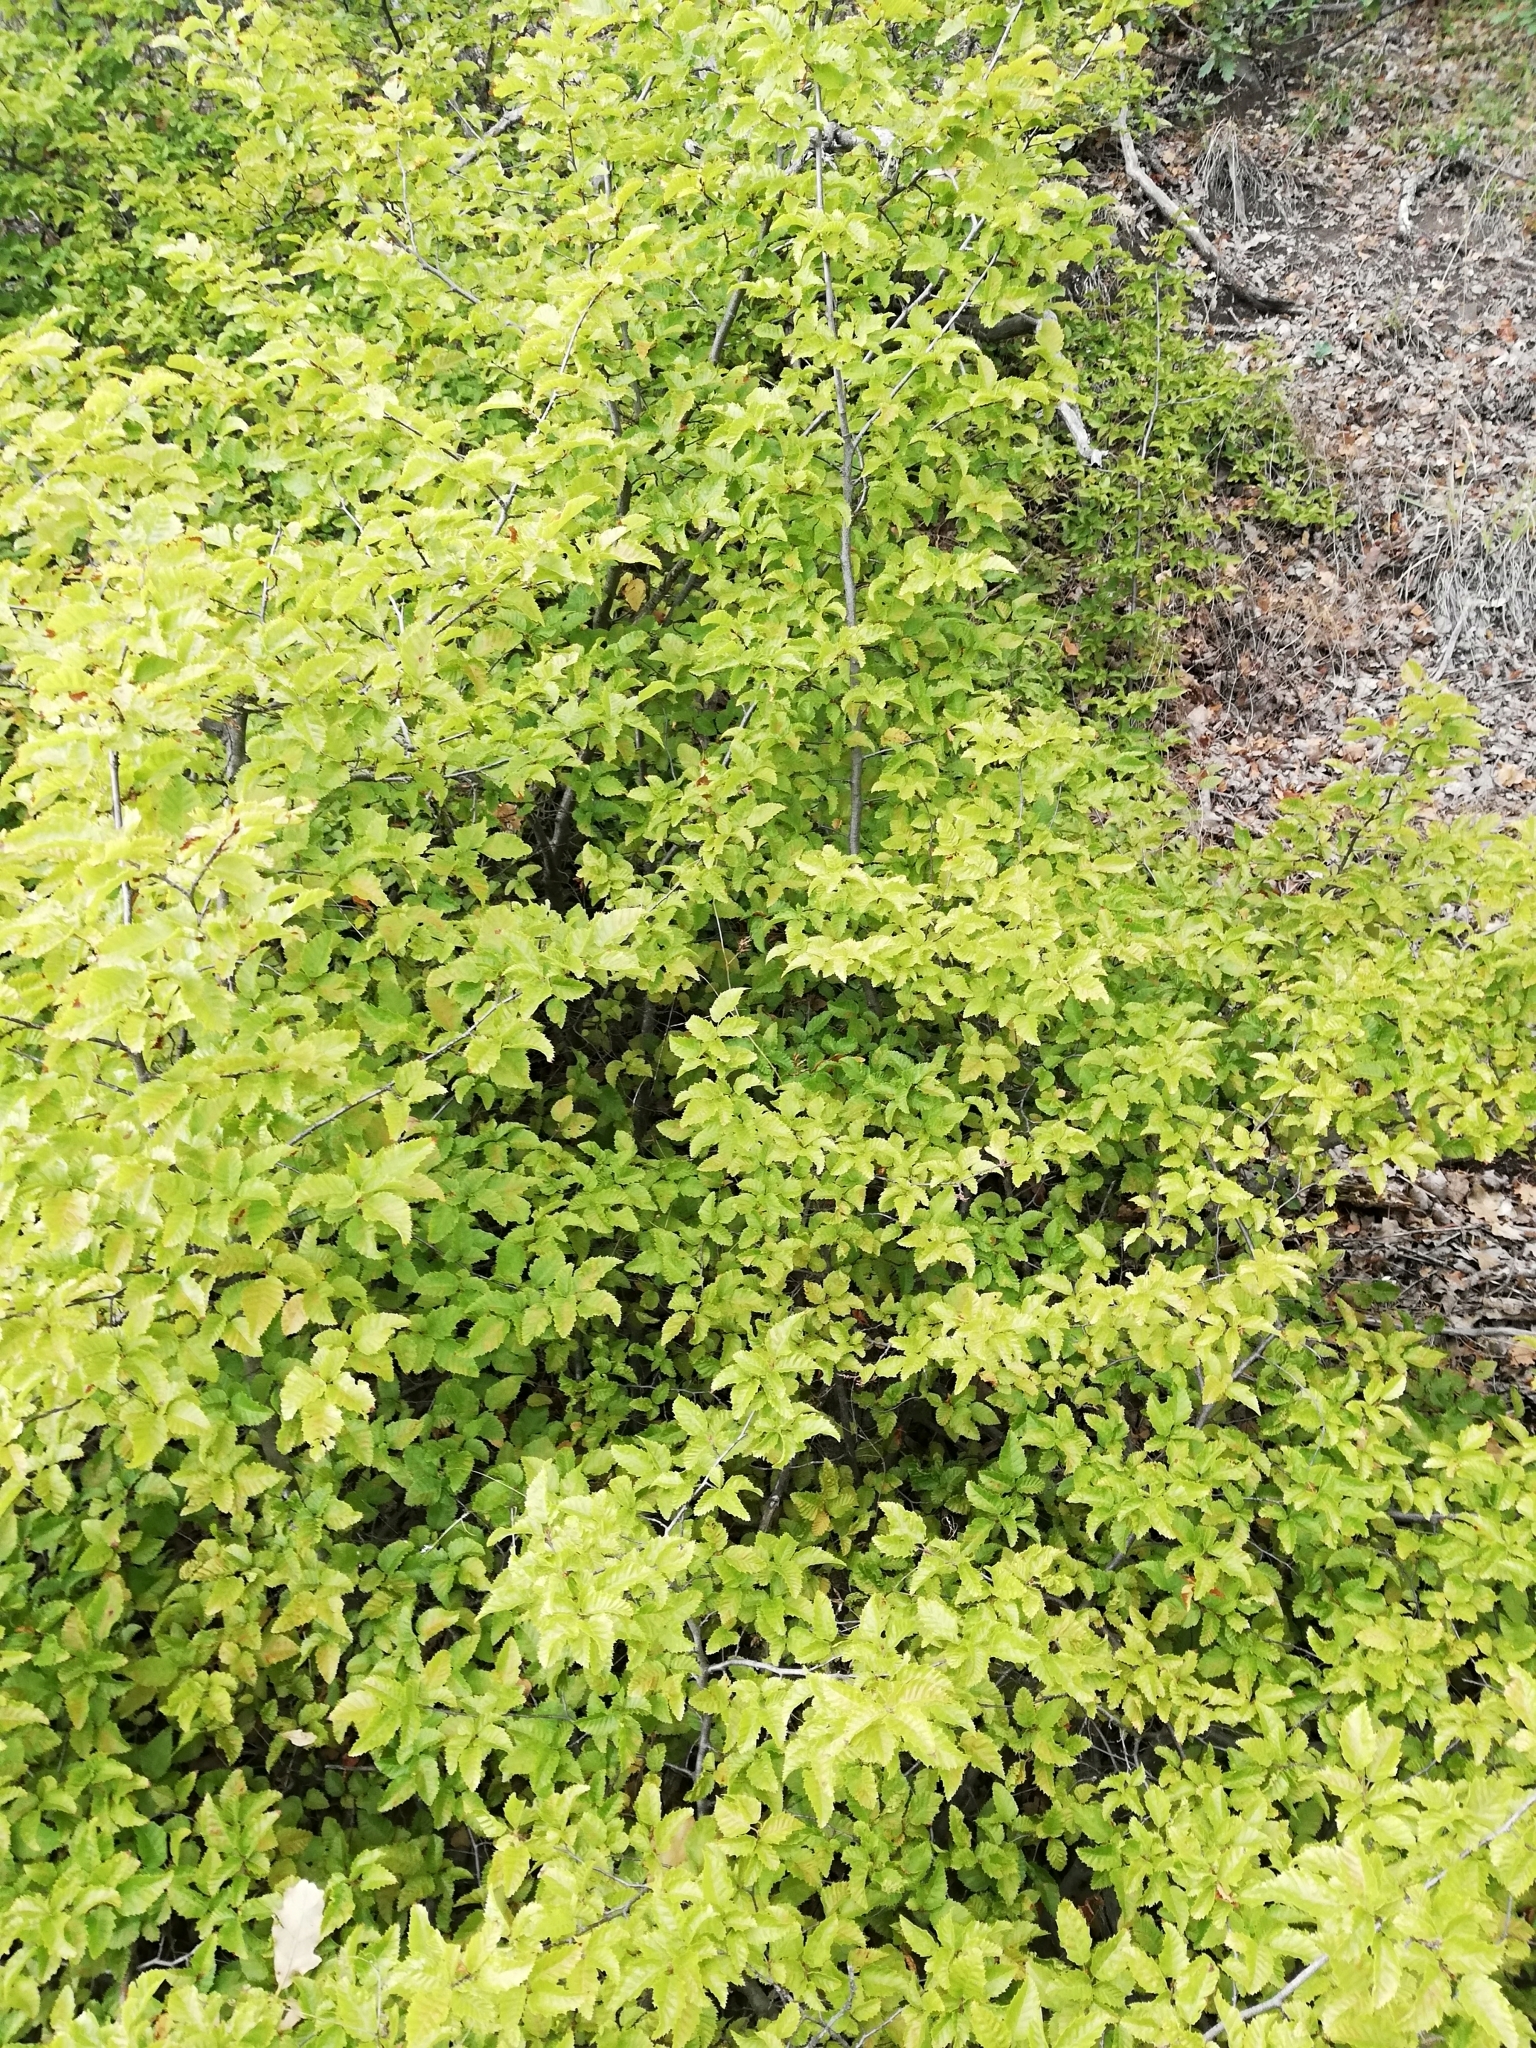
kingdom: Plantae
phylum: Tracheophyta
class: Magnoliopsida
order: Fagales
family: Betulaceae
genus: Carpinus
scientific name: Carpinus orientalis
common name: Eastern hornbeam
